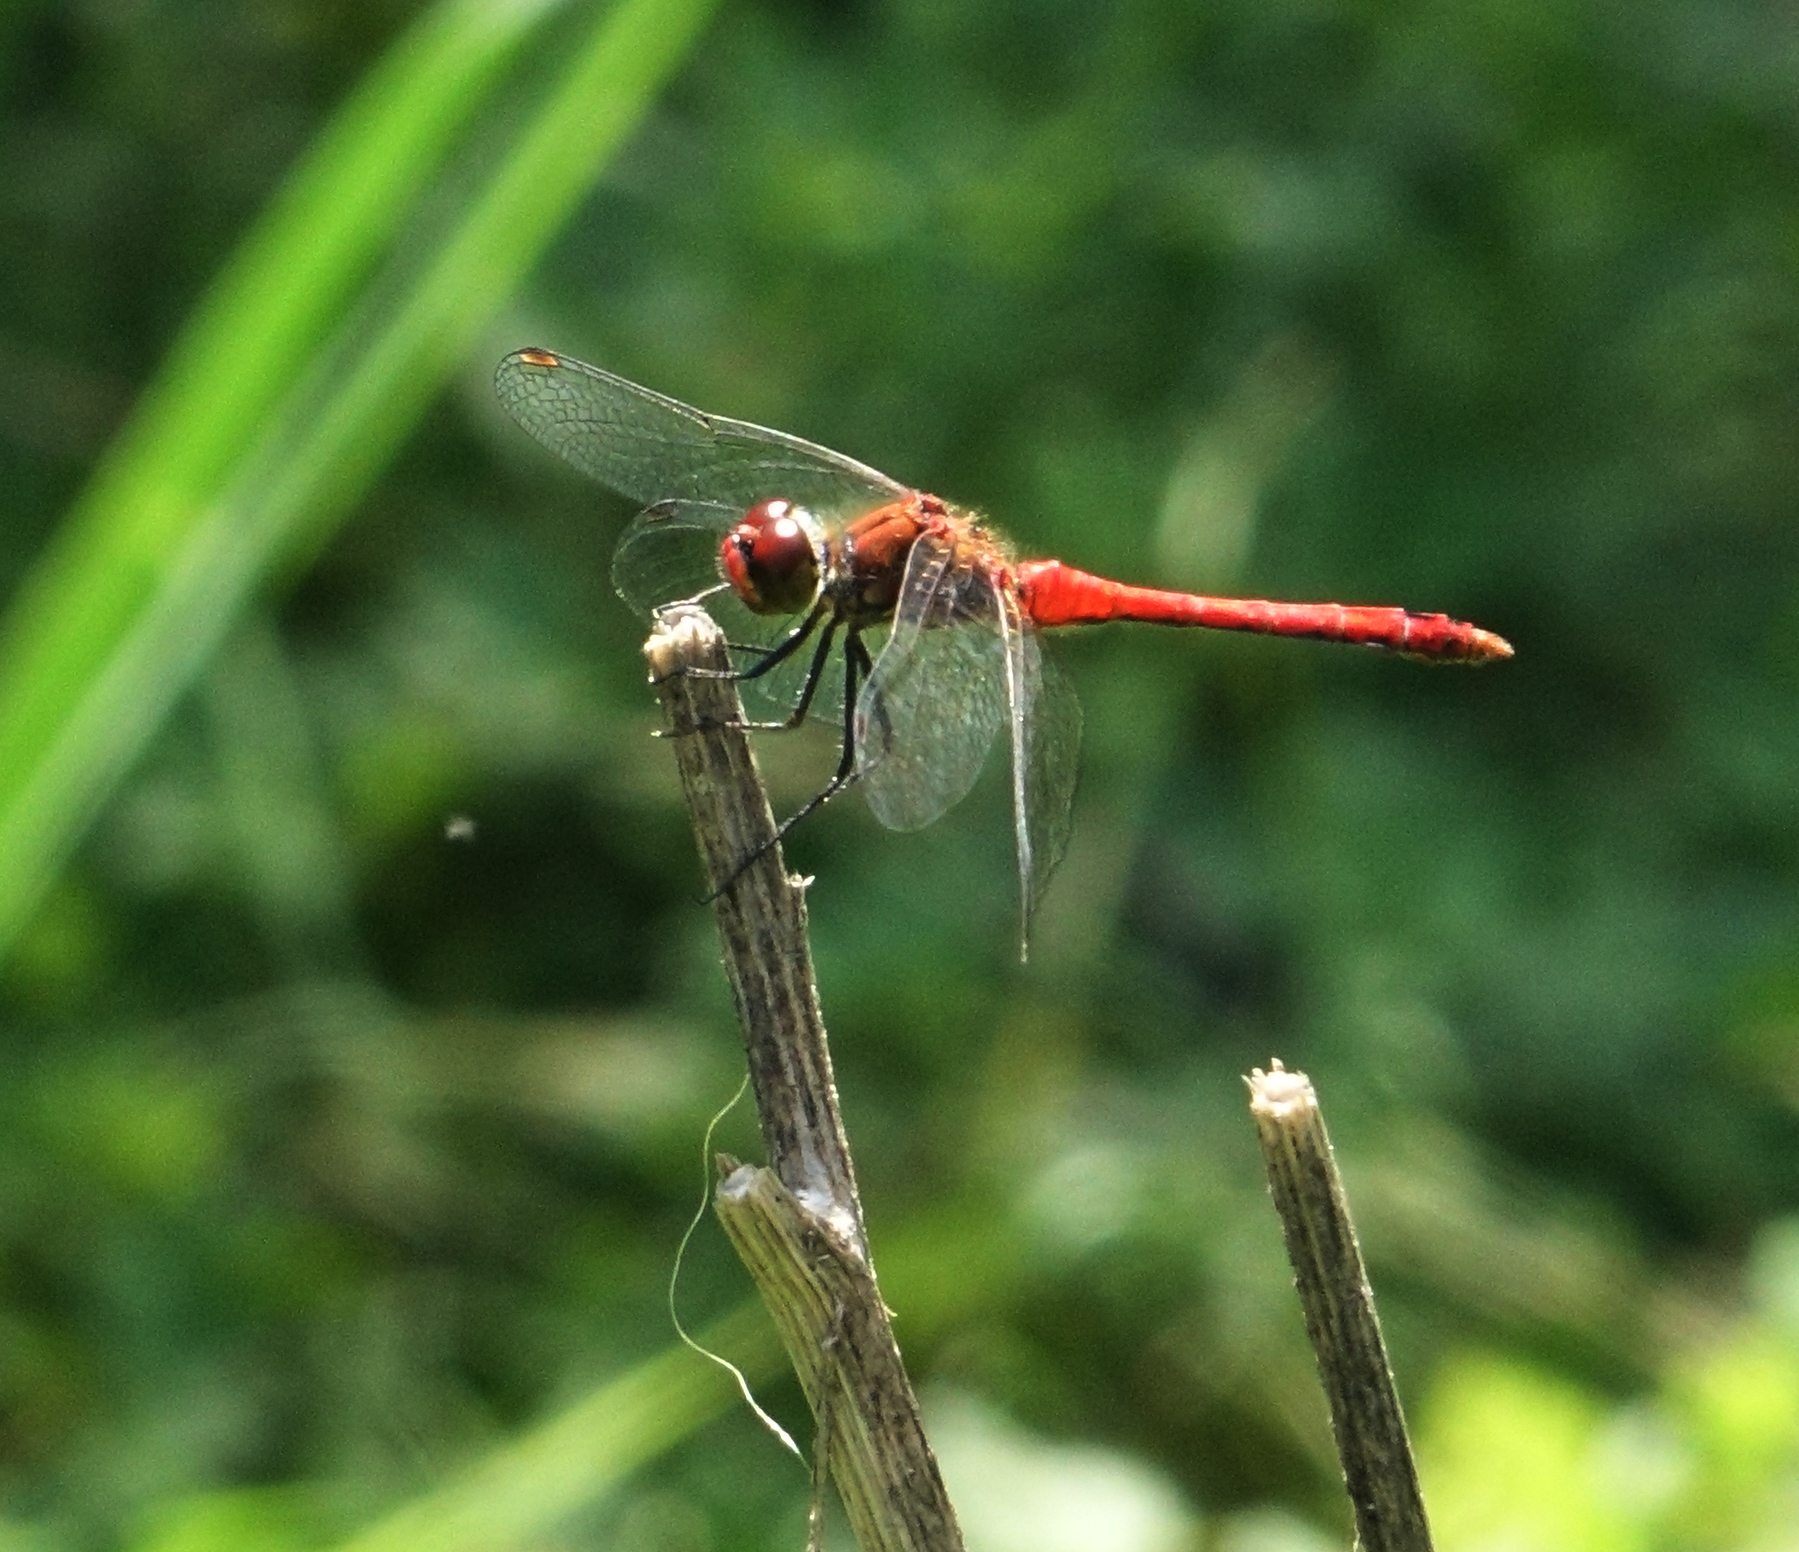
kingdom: Animalia
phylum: Arthropoda
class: Insecta
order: Odonata
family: Libellulidae
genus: Sympetrum
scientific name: Sympetrum sanguineum
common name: Ruddy darter
